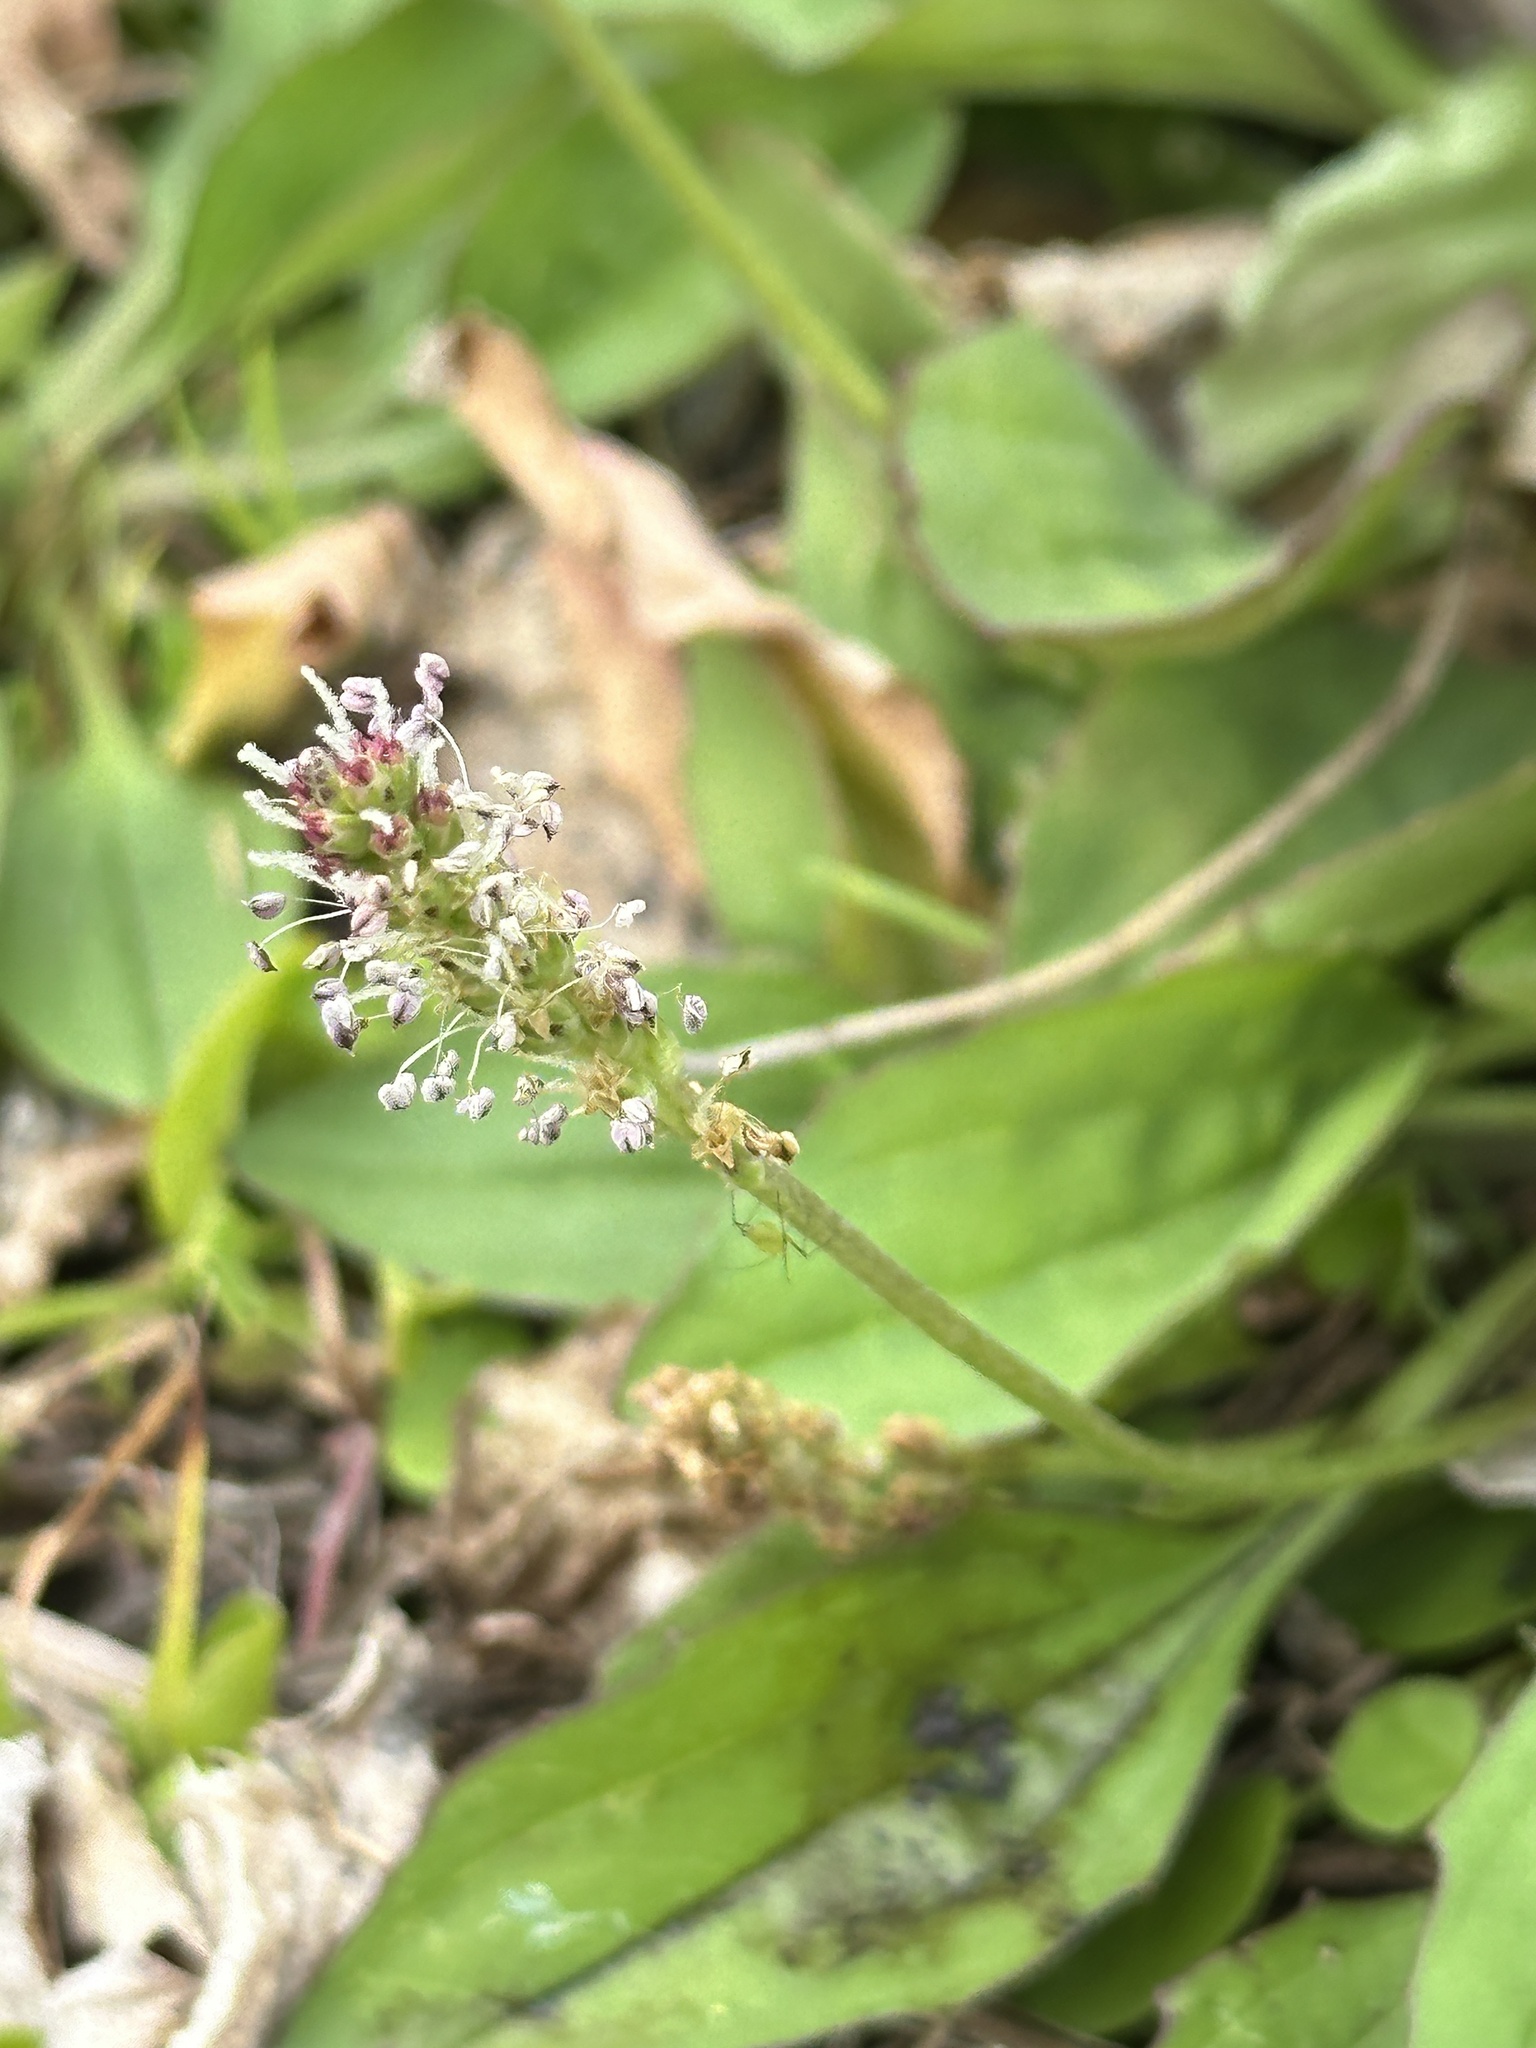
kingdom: Plantae
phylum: Tracheophyta
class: Magnoliopsida
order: Lamiales
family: Plantaginaceae
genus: Plantago
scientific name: Plantago asiatica
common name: Psyllium
